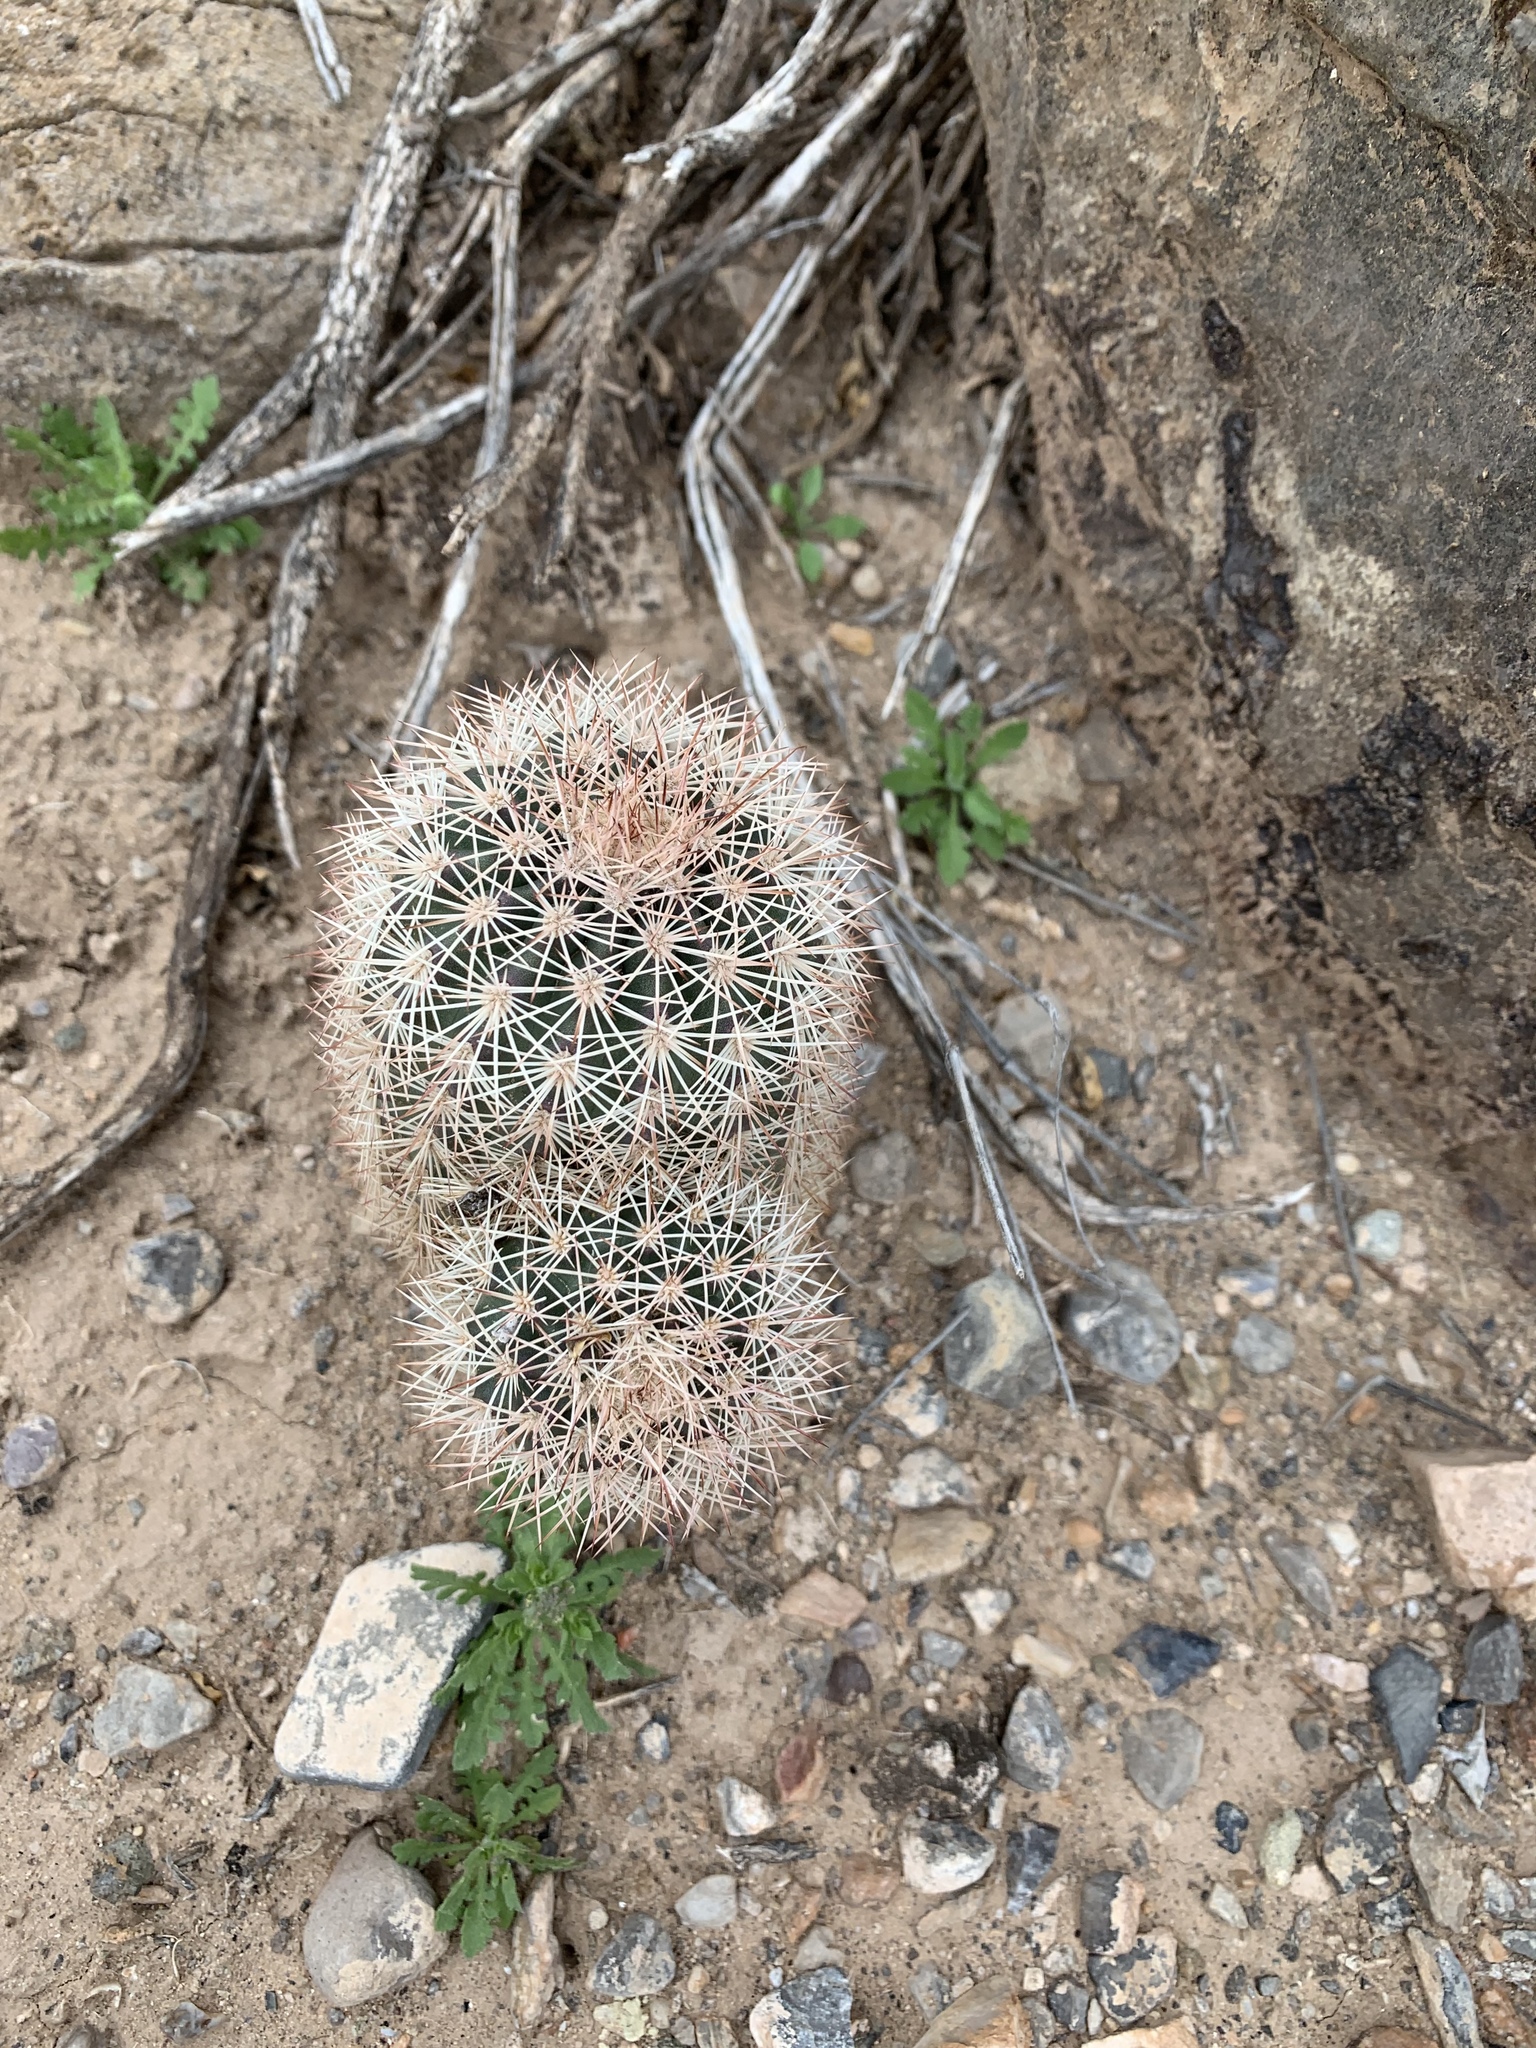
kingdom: Plantae
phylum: Tracheophyta
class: Magnoliopsida
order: Caryophyllales
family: Cactaceae
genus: Echinocereus
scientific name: Echinocereus dasyacanthus
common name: Spiny hedgehog cactus
